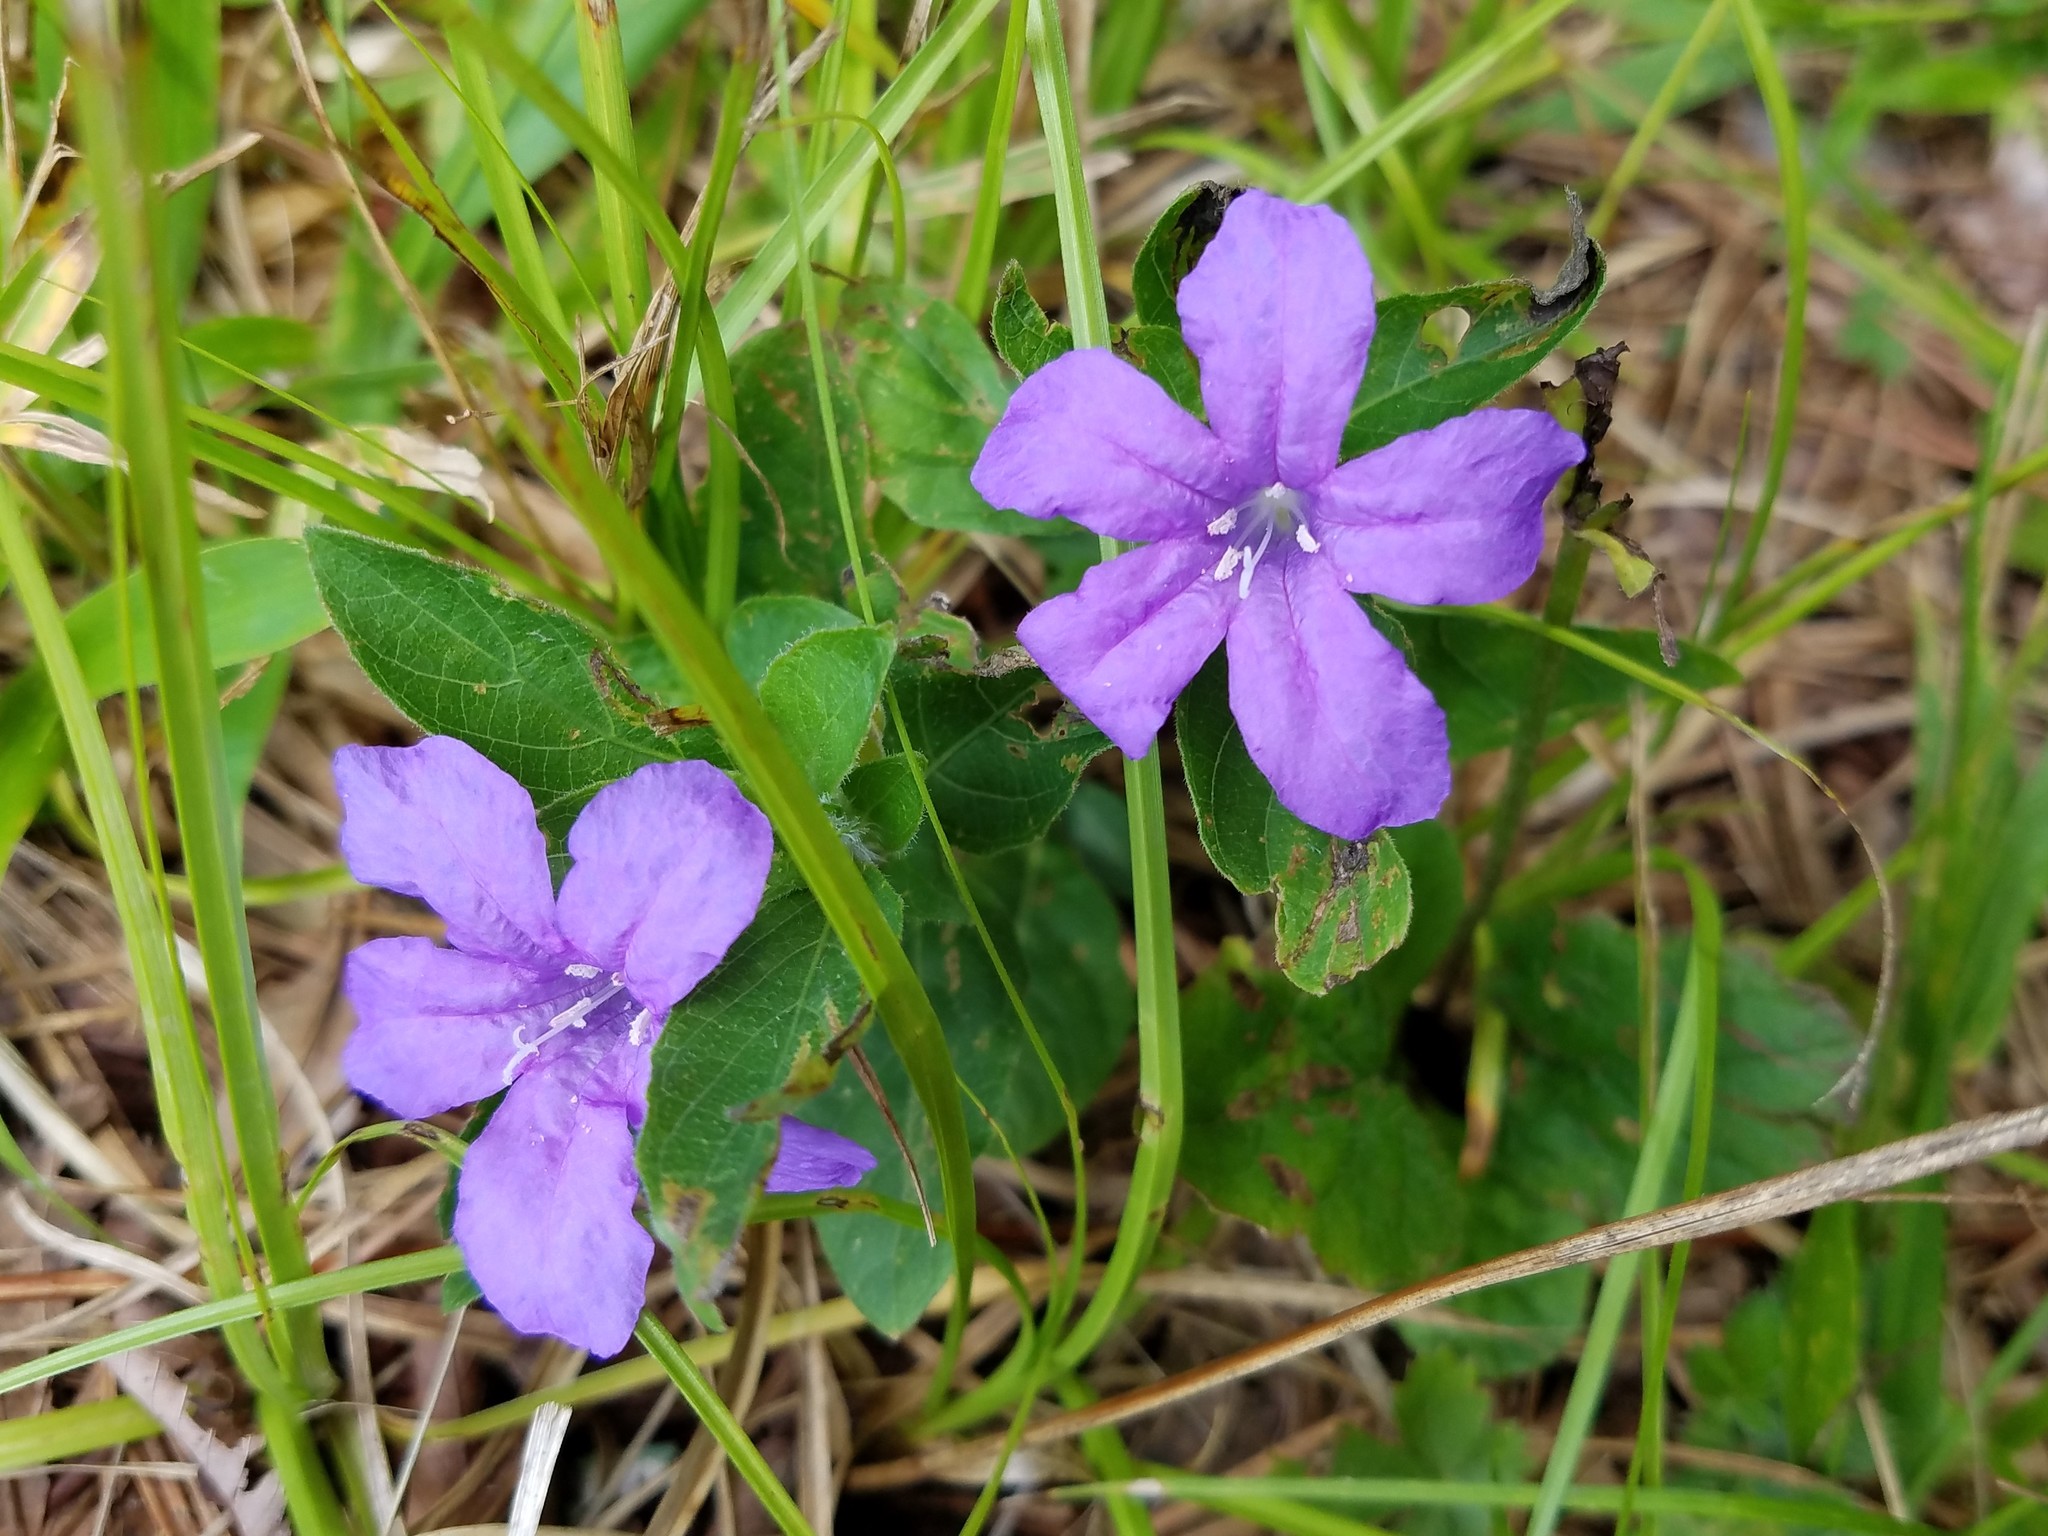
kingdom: Plantae
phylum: Tracheophyta
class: Magnoliopsida
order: Lamiales
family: Acanthaceae
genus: Ruellia
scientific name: Ruellia caroliniensis
